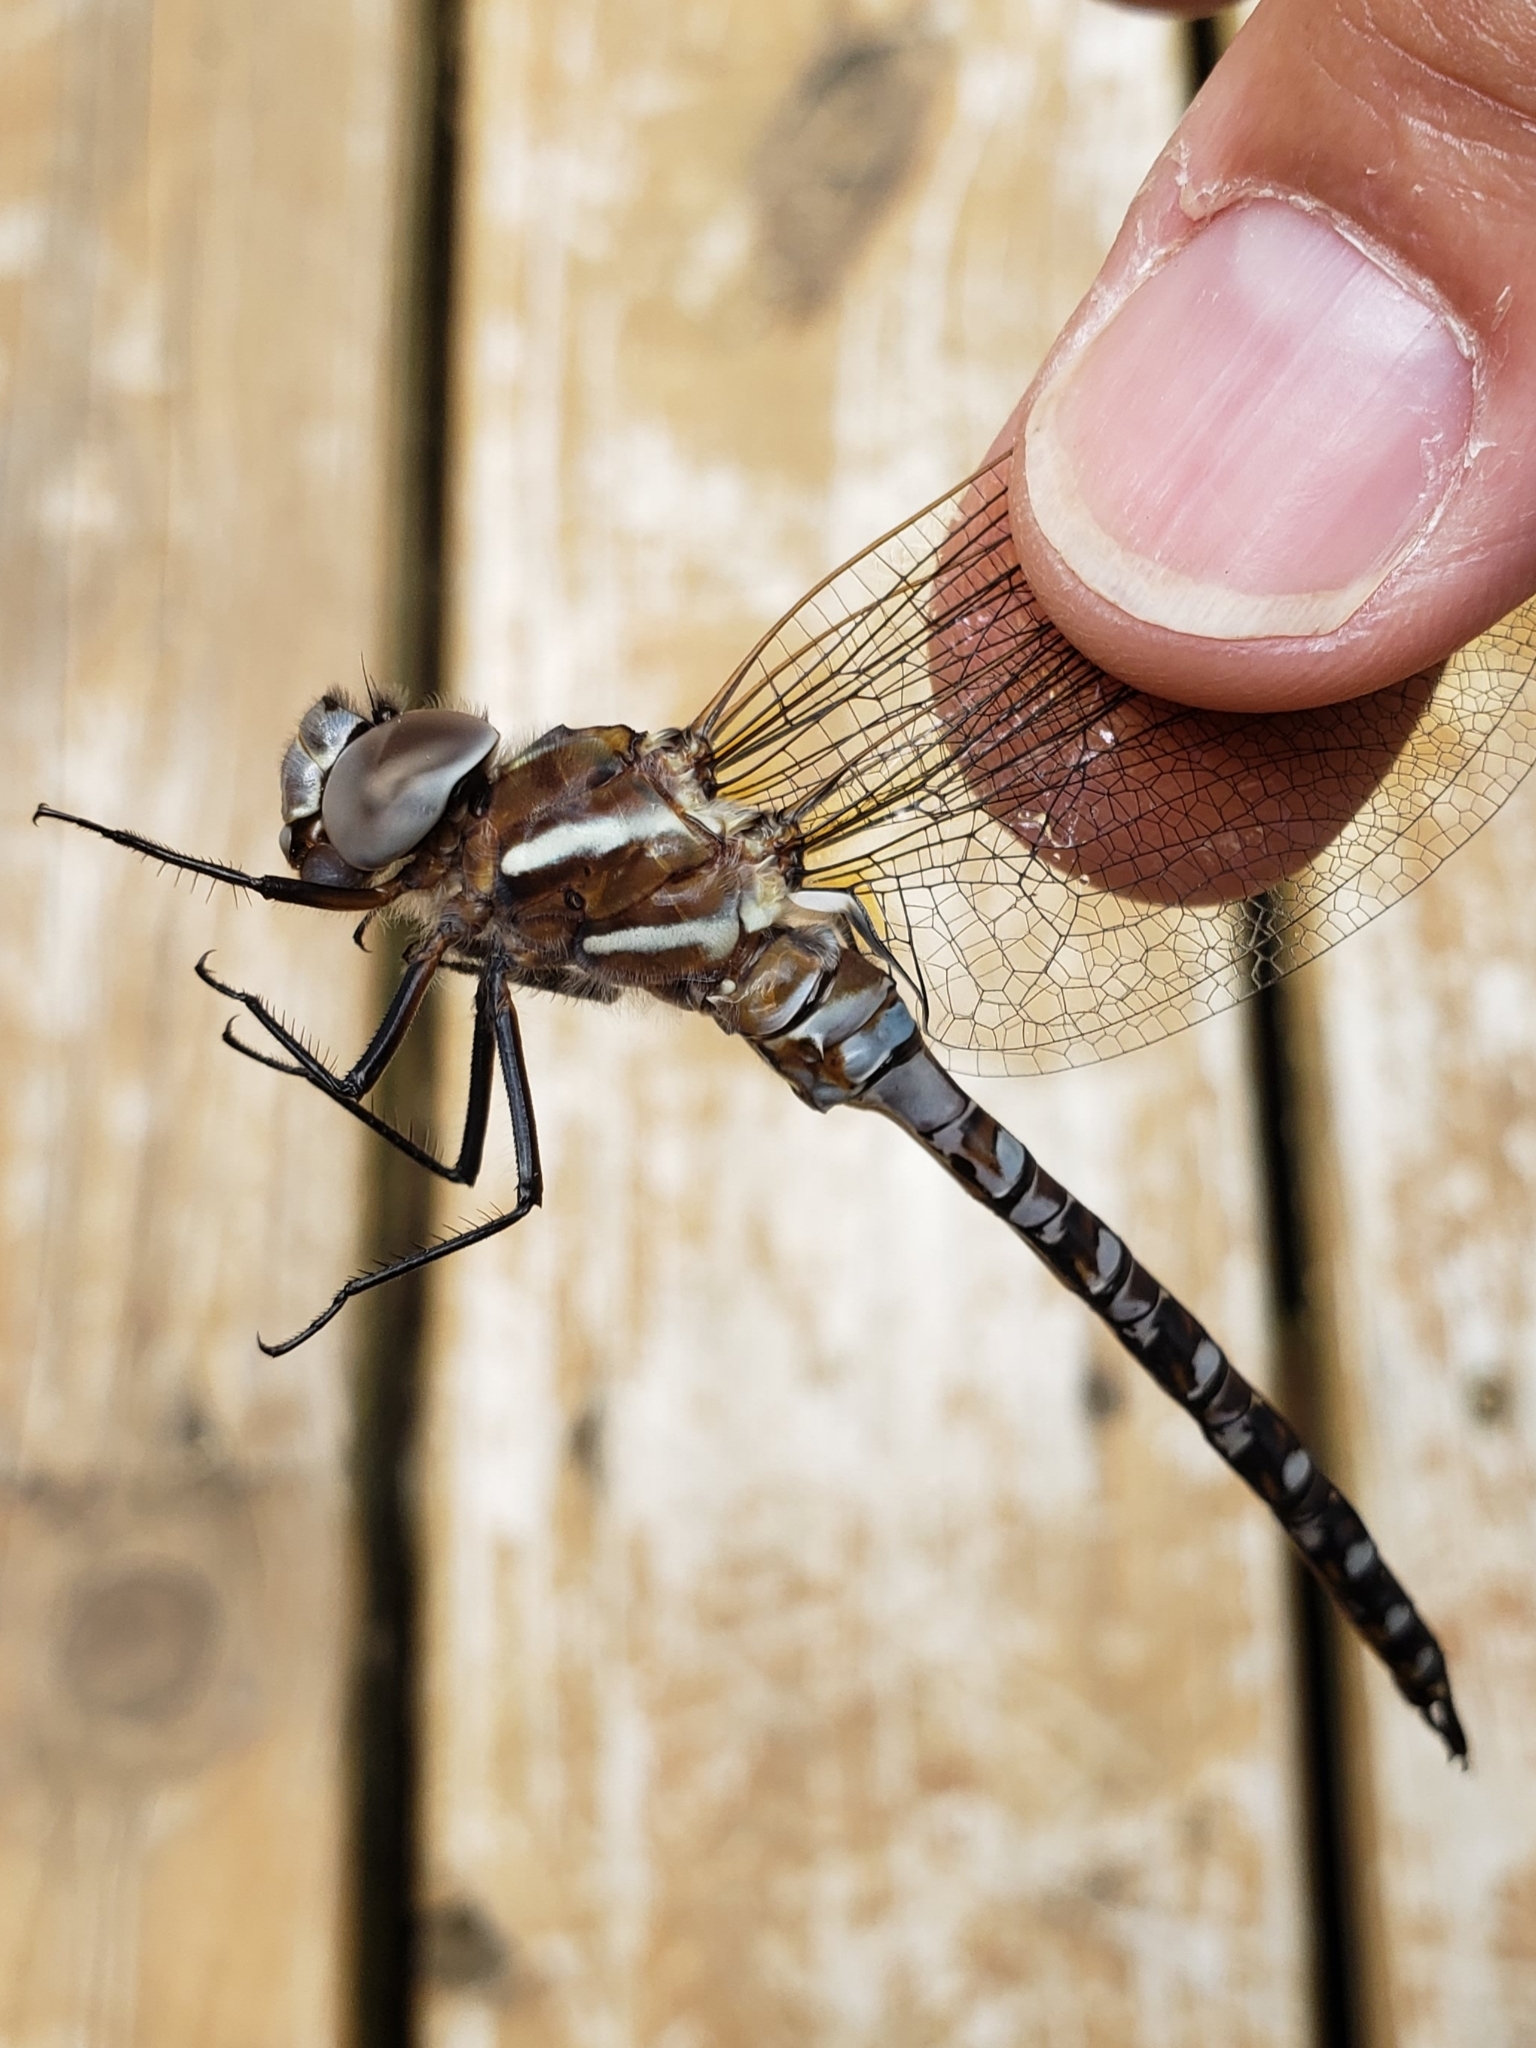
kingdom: Animalia
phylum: Arthropoda
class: Insecta
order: Odonata
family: Aeshnidae
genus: Rhionaeschna
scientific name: Rhionaeschna mutata
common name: Spatterdock darner
